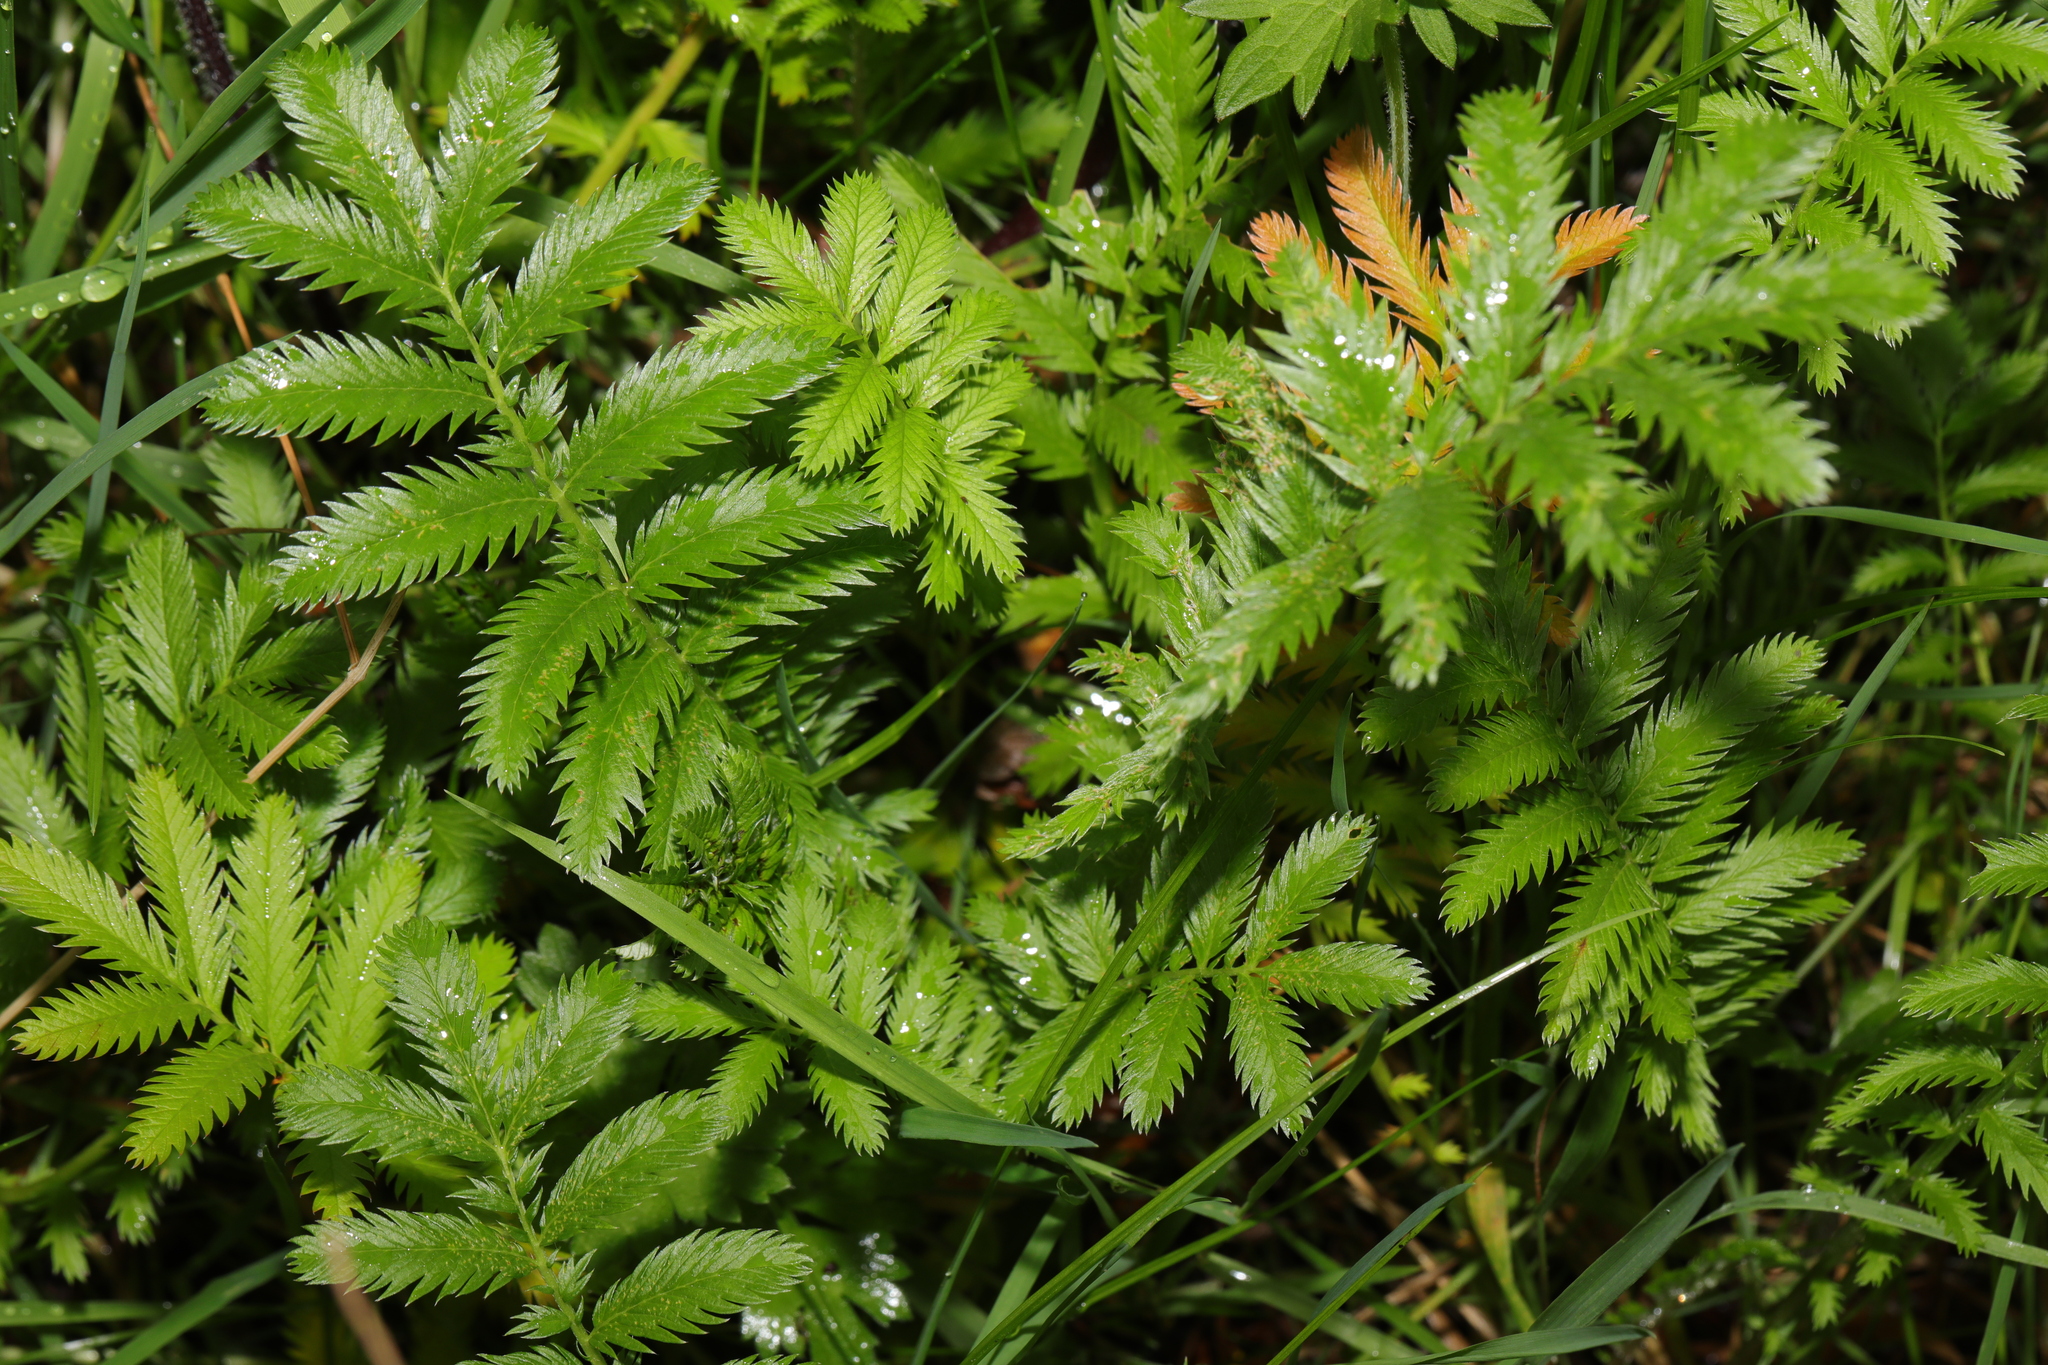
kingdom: Plantae
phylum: Tracheophyta
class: Magnoliopsida
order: Rosales
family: Rosaceae
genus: Argentina
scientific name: Argentina anserina
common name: Common silverweed
